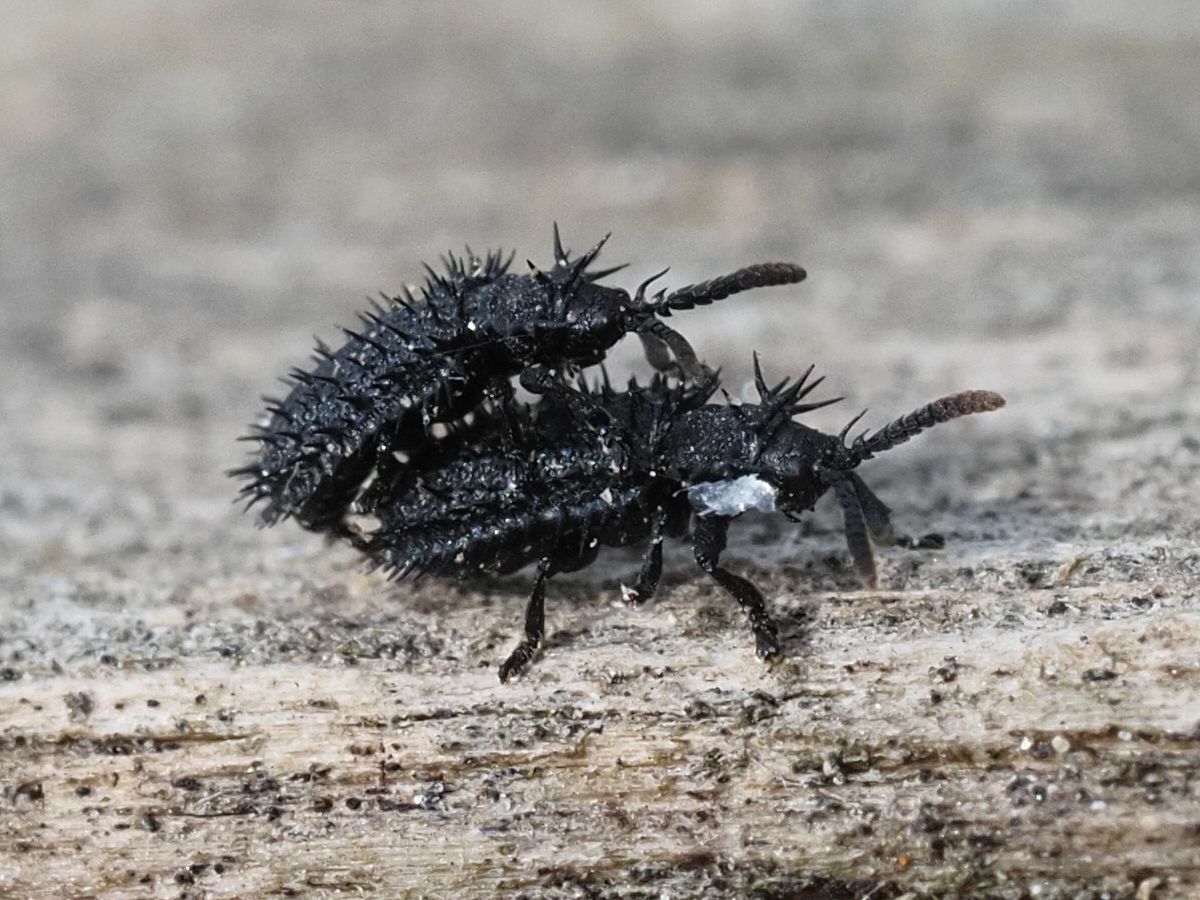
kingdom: Animalia
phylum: Arthropoda
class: Insecta
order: Coleoptera
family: Chrysomelidae
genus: Hispa
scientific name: Hispa atra
